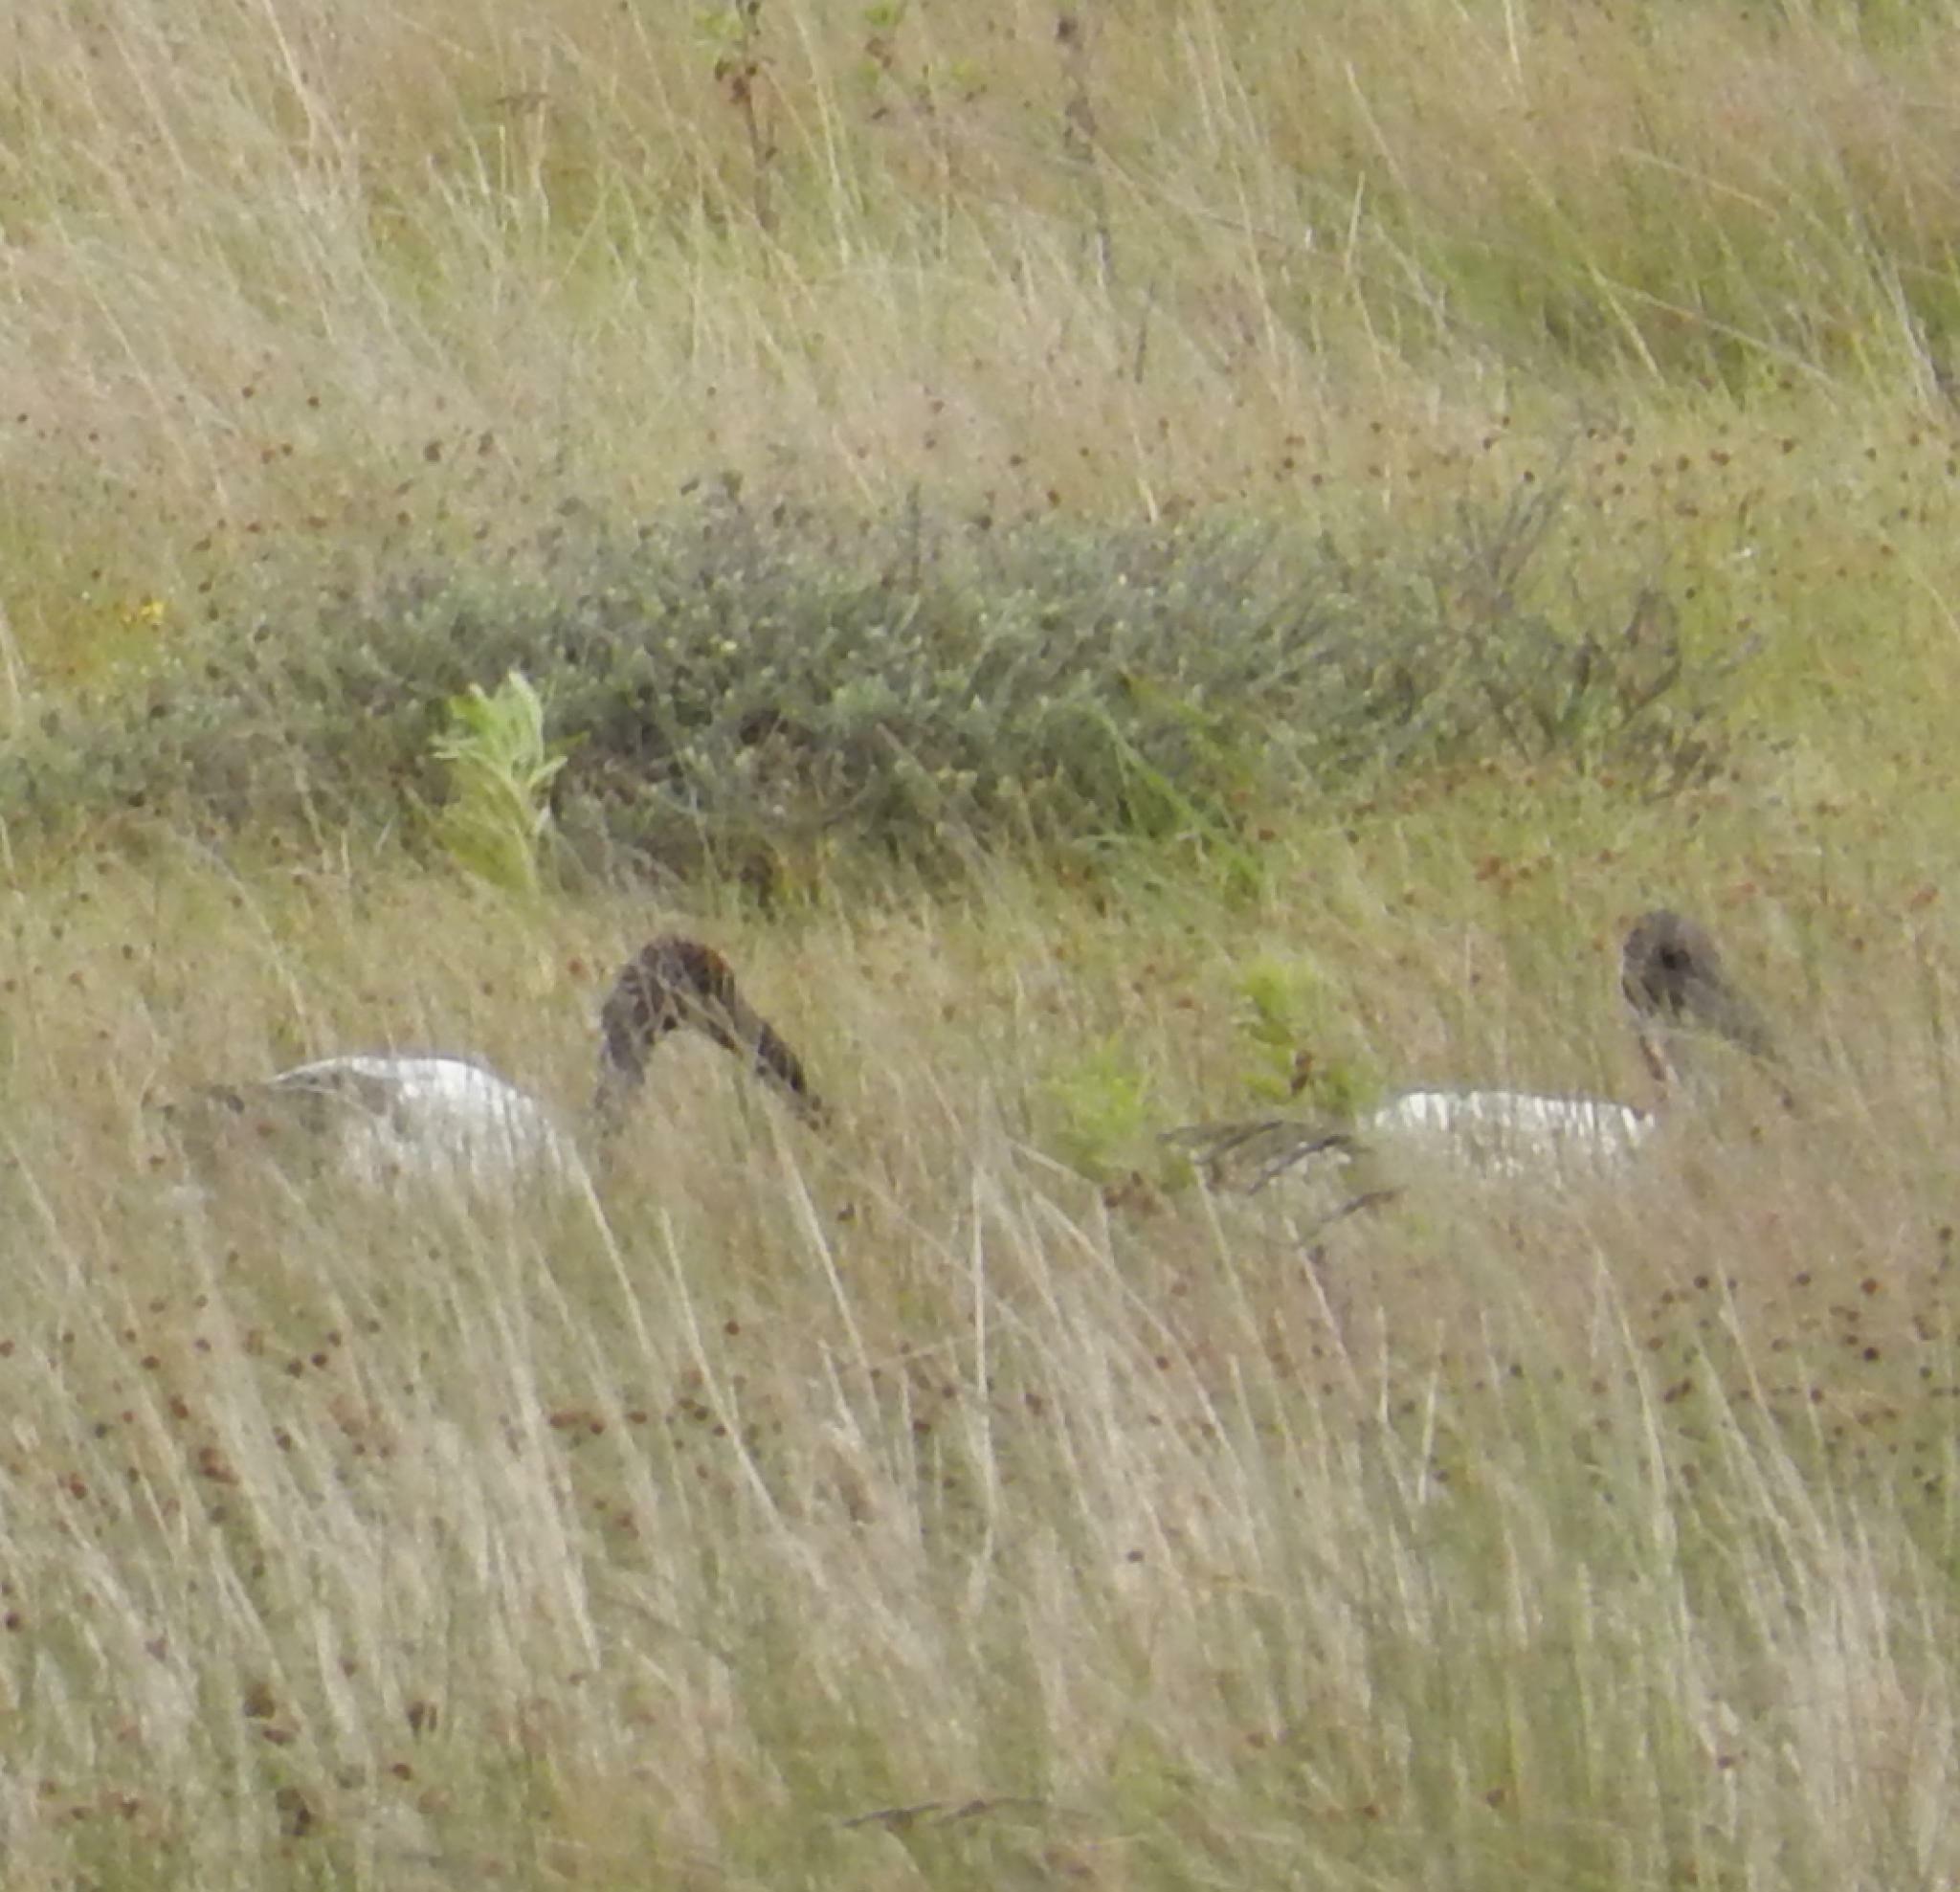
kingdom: Animalia
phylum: Chordata
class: Aves
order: Pelecaniformes
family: Threskiornithidae
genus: Threskiornis
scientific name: Threskiornis aethiopicus
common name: Sacred ibis
